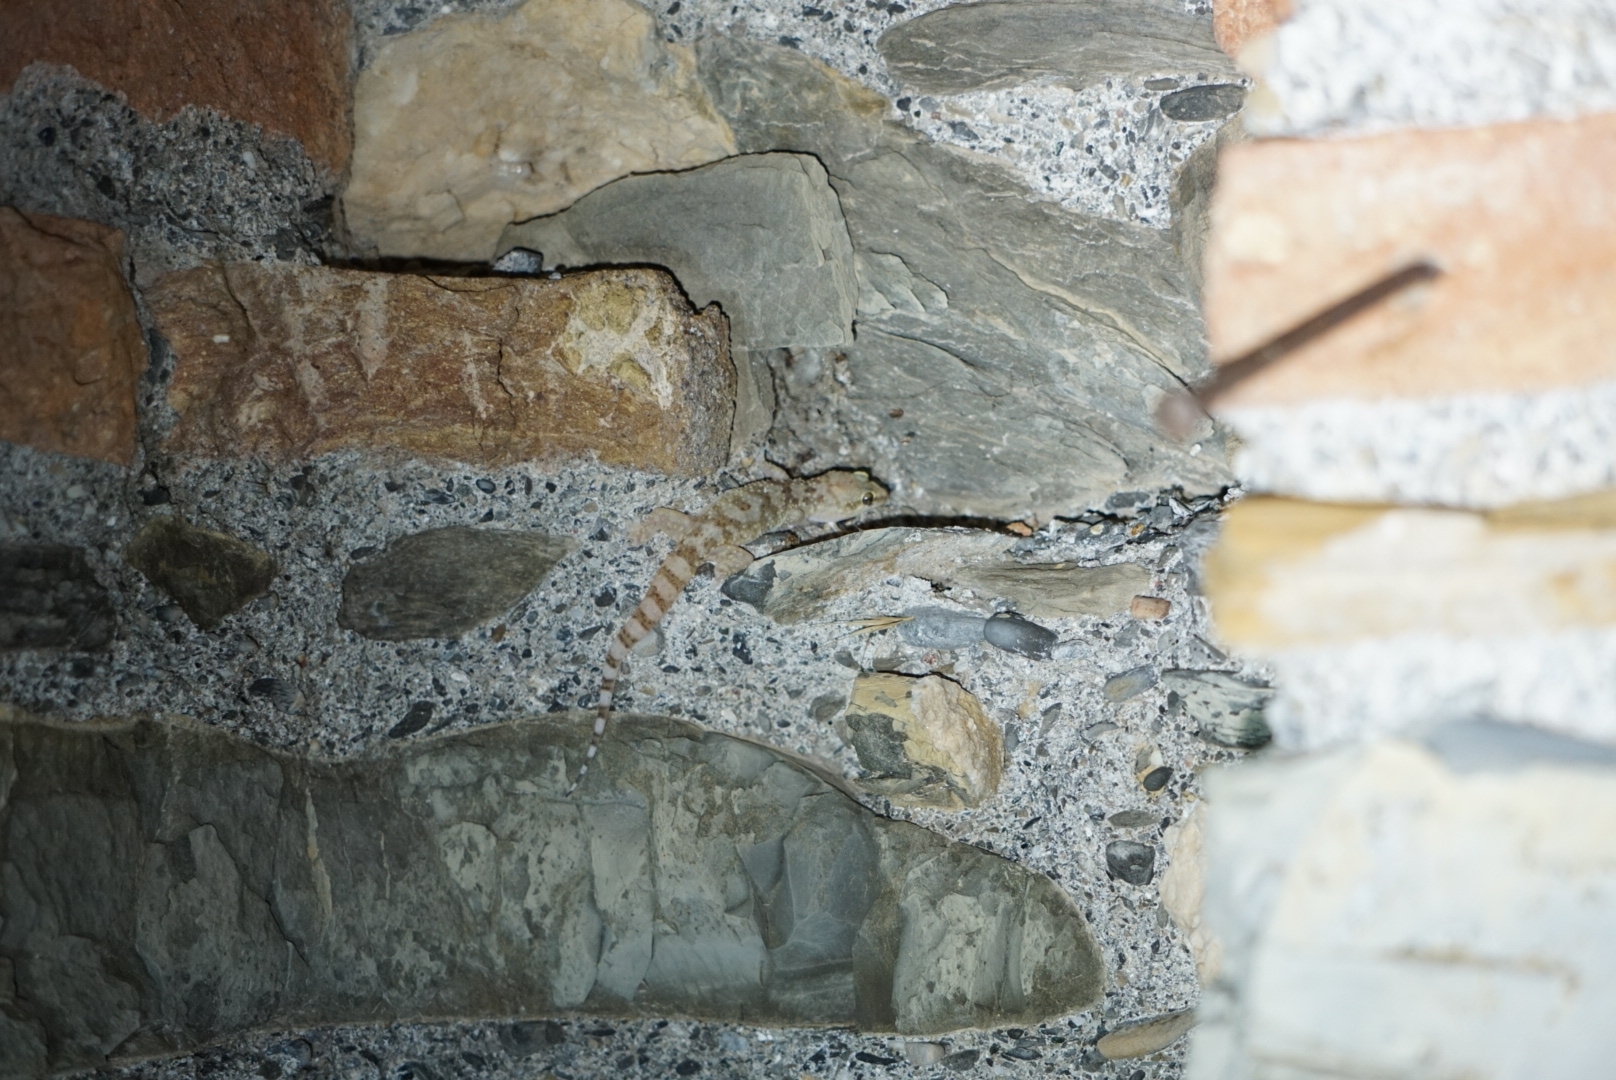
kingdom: Animalia
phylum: Chordata
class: Squamata
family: Gekkonidae
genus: Hemidactylus
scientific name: Hemidactylus turcicus
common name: Turkish gecko
